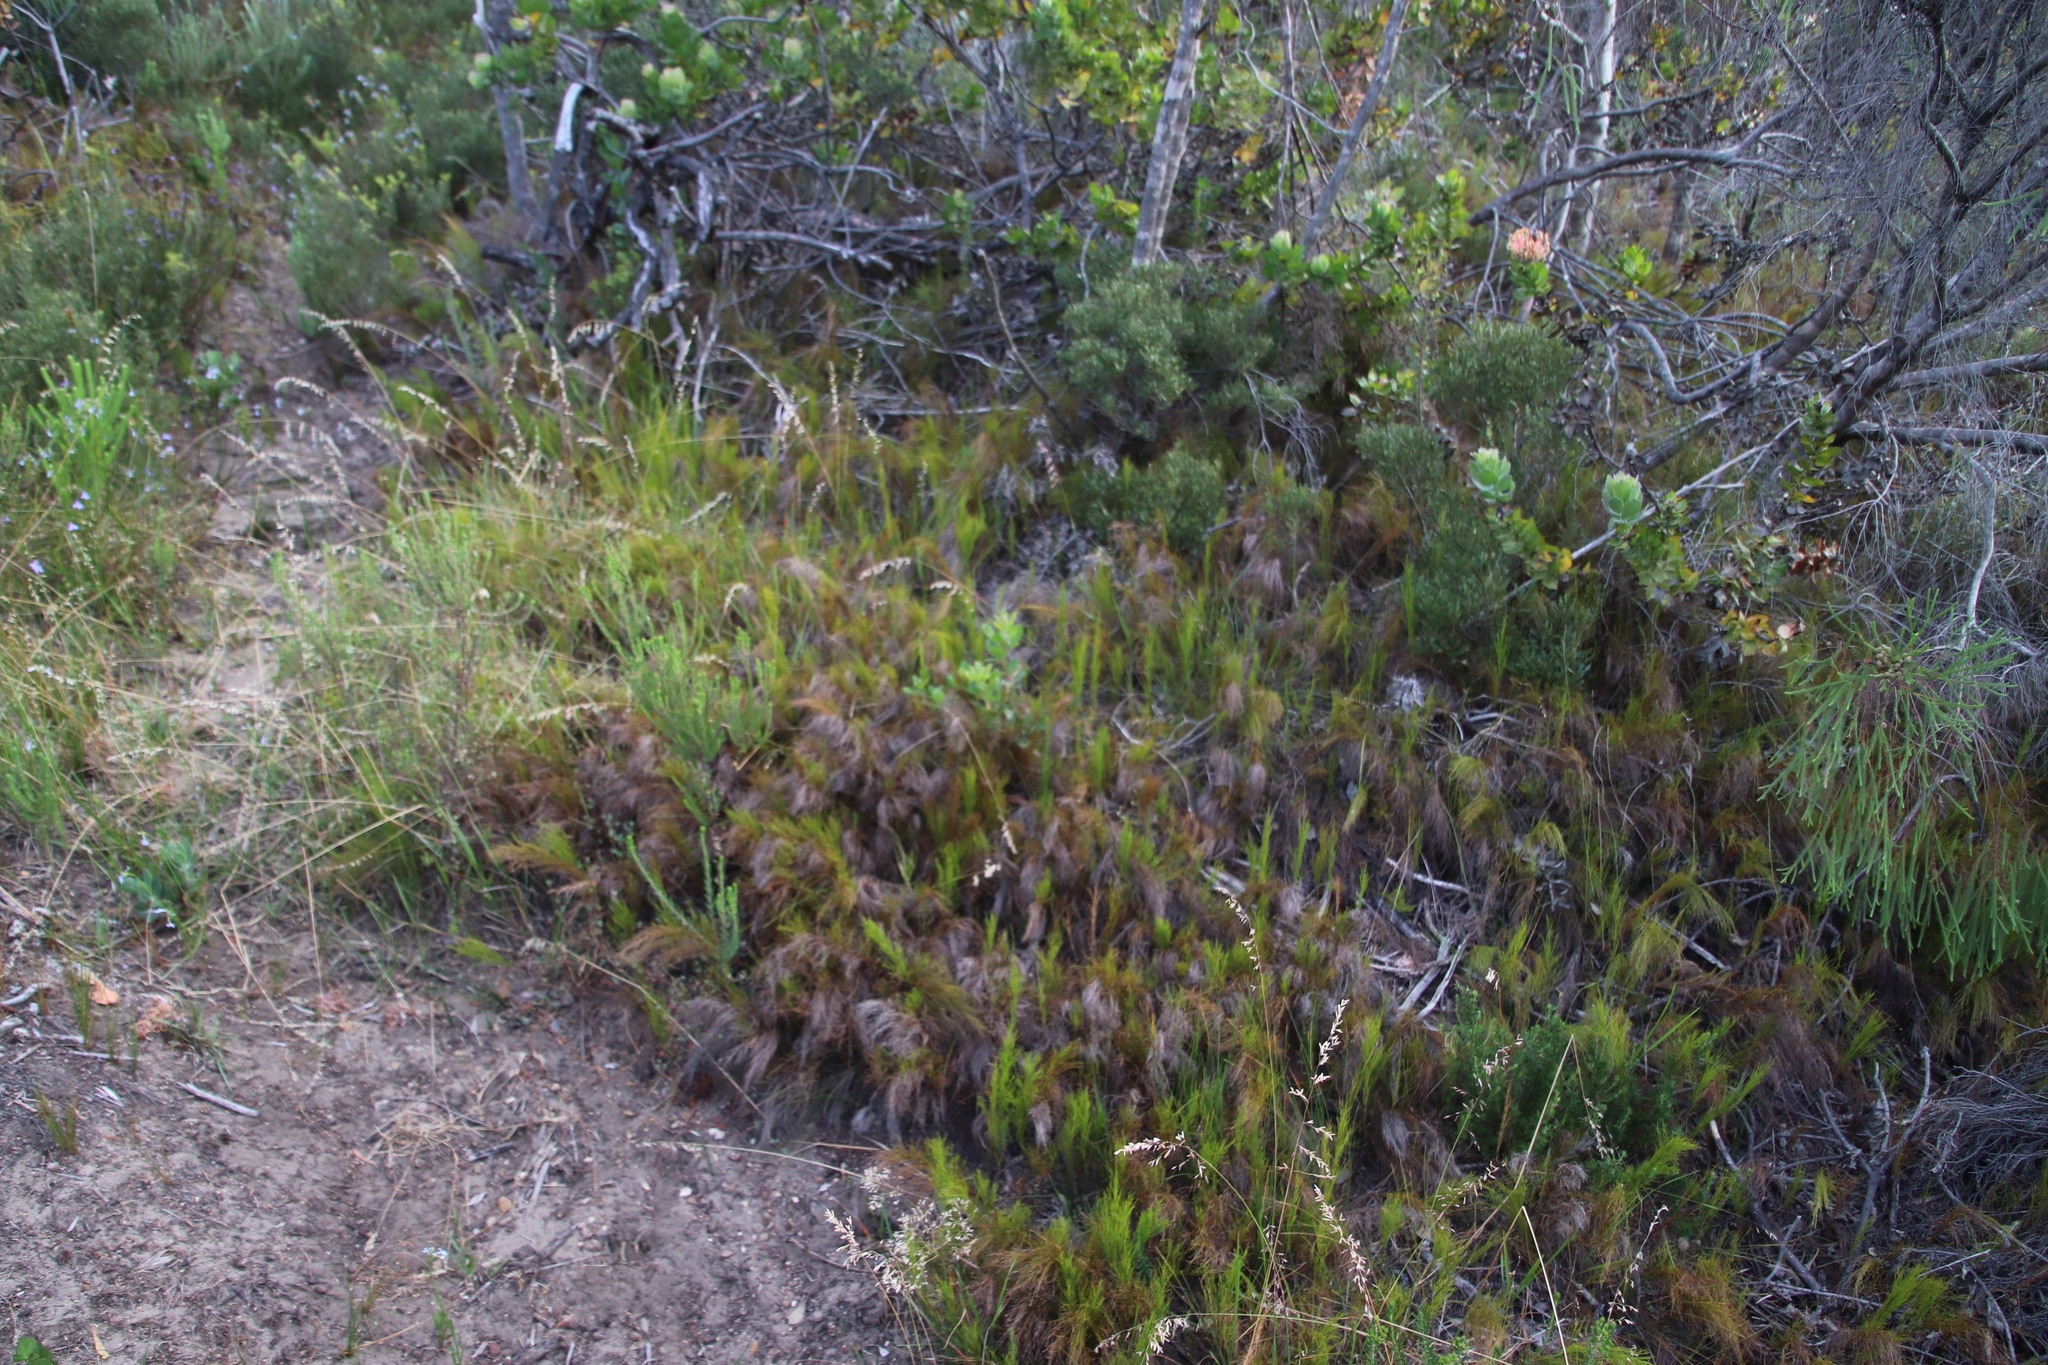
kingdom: Plantae
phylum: Tracheophyta
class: Liliopsida
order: Poales
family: Restionaceae
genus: Restio
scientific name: Restio leptoclados
